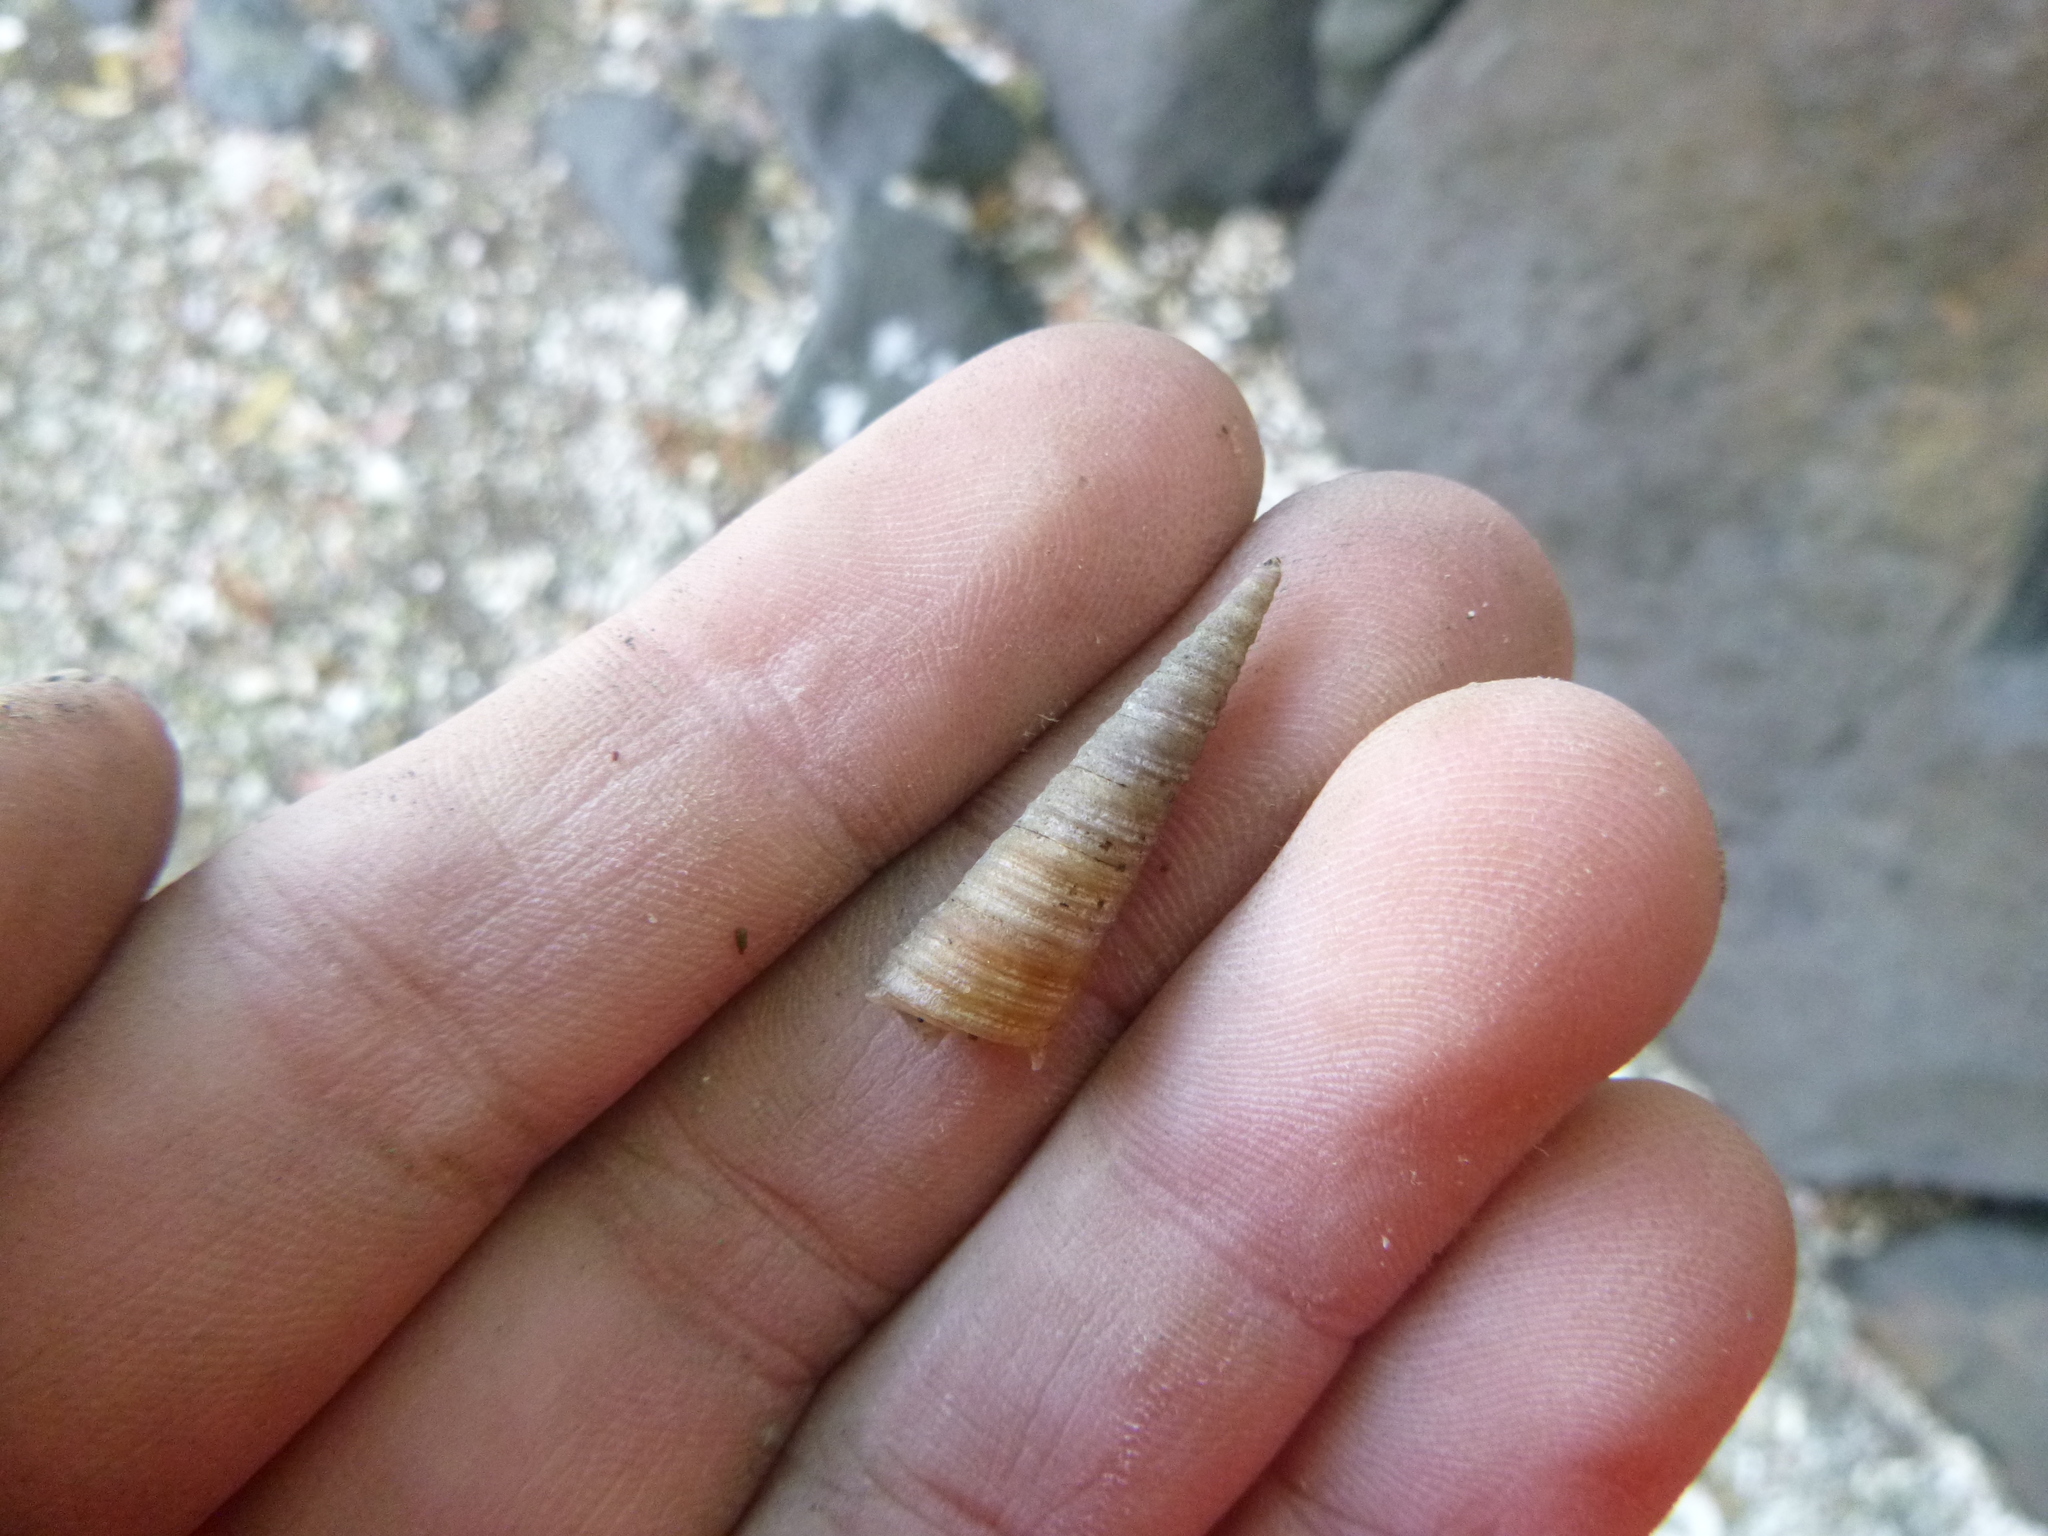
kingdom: Animalia
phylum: Mollusca
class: Gastropoda
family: Turritellidae
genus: Maoricolpus
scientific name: Maoricolpus roseus
